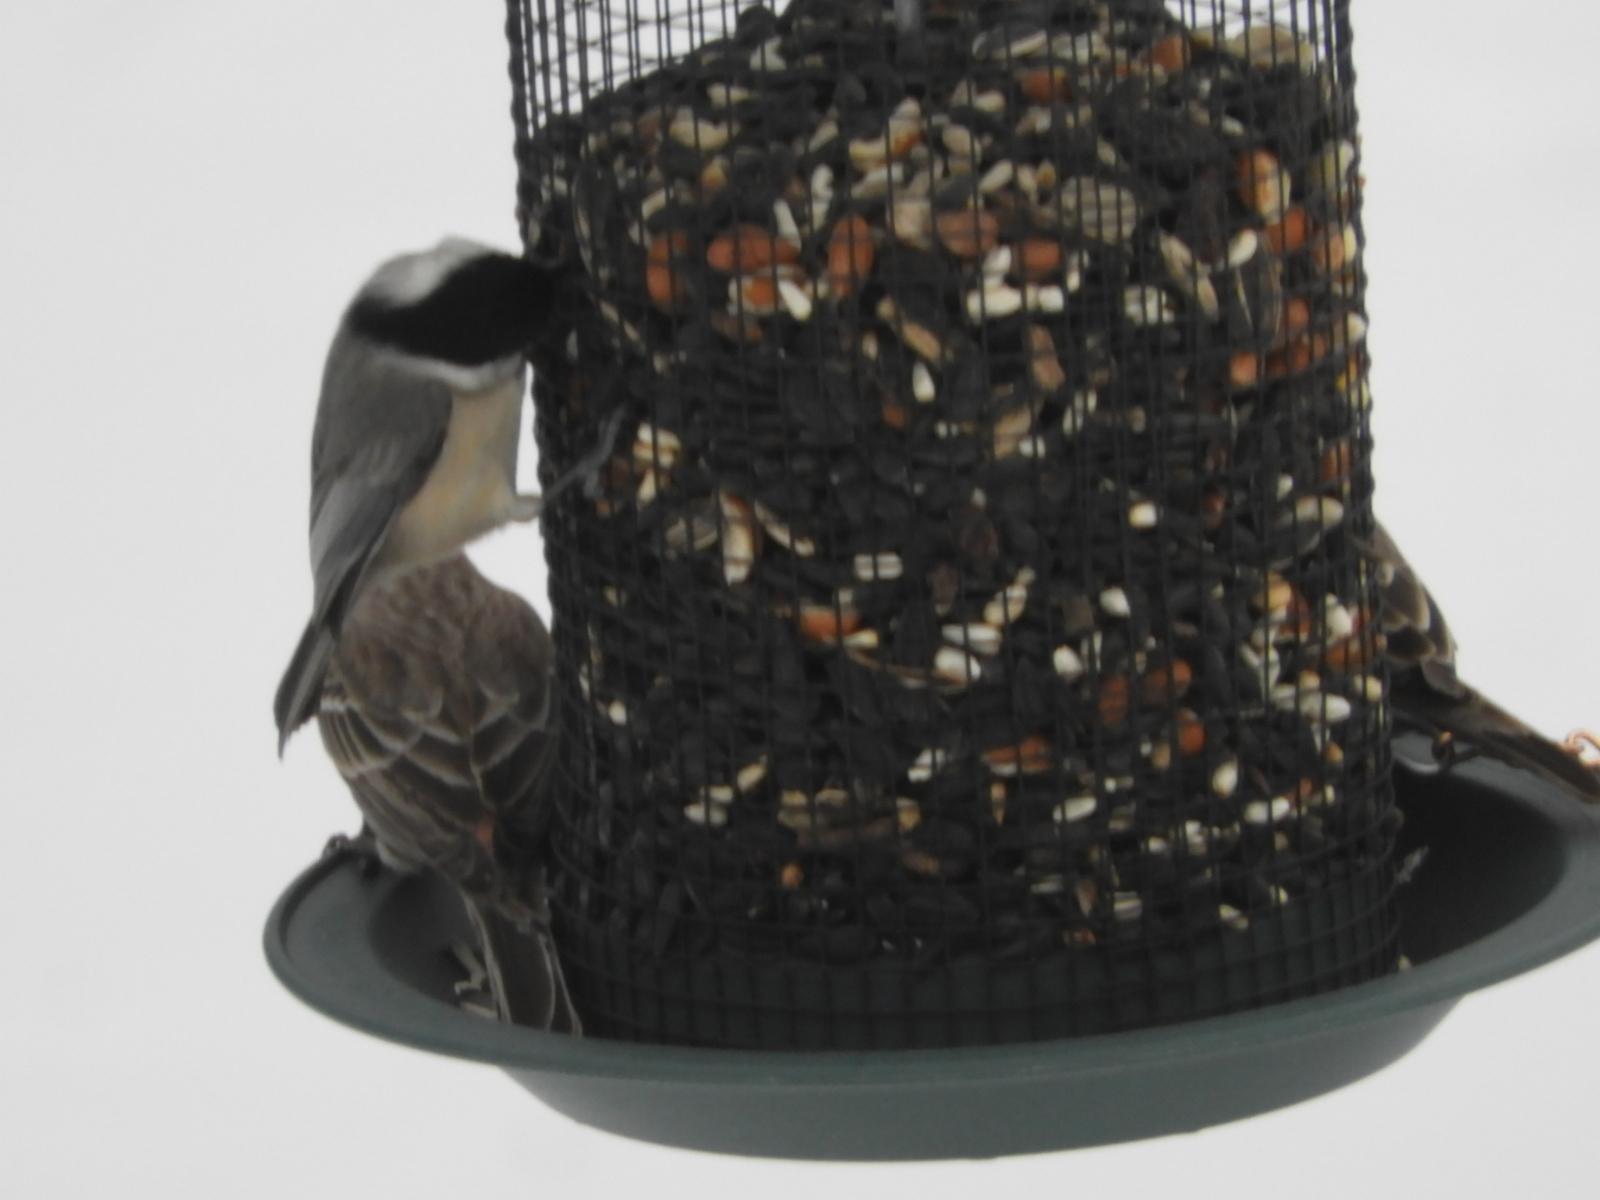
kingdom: Animalia
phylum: Chordata
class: Aves
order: Passeriformes
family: Paridae
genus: Poecile
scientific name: Poecile carolinensis
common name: Carolina chickadee
